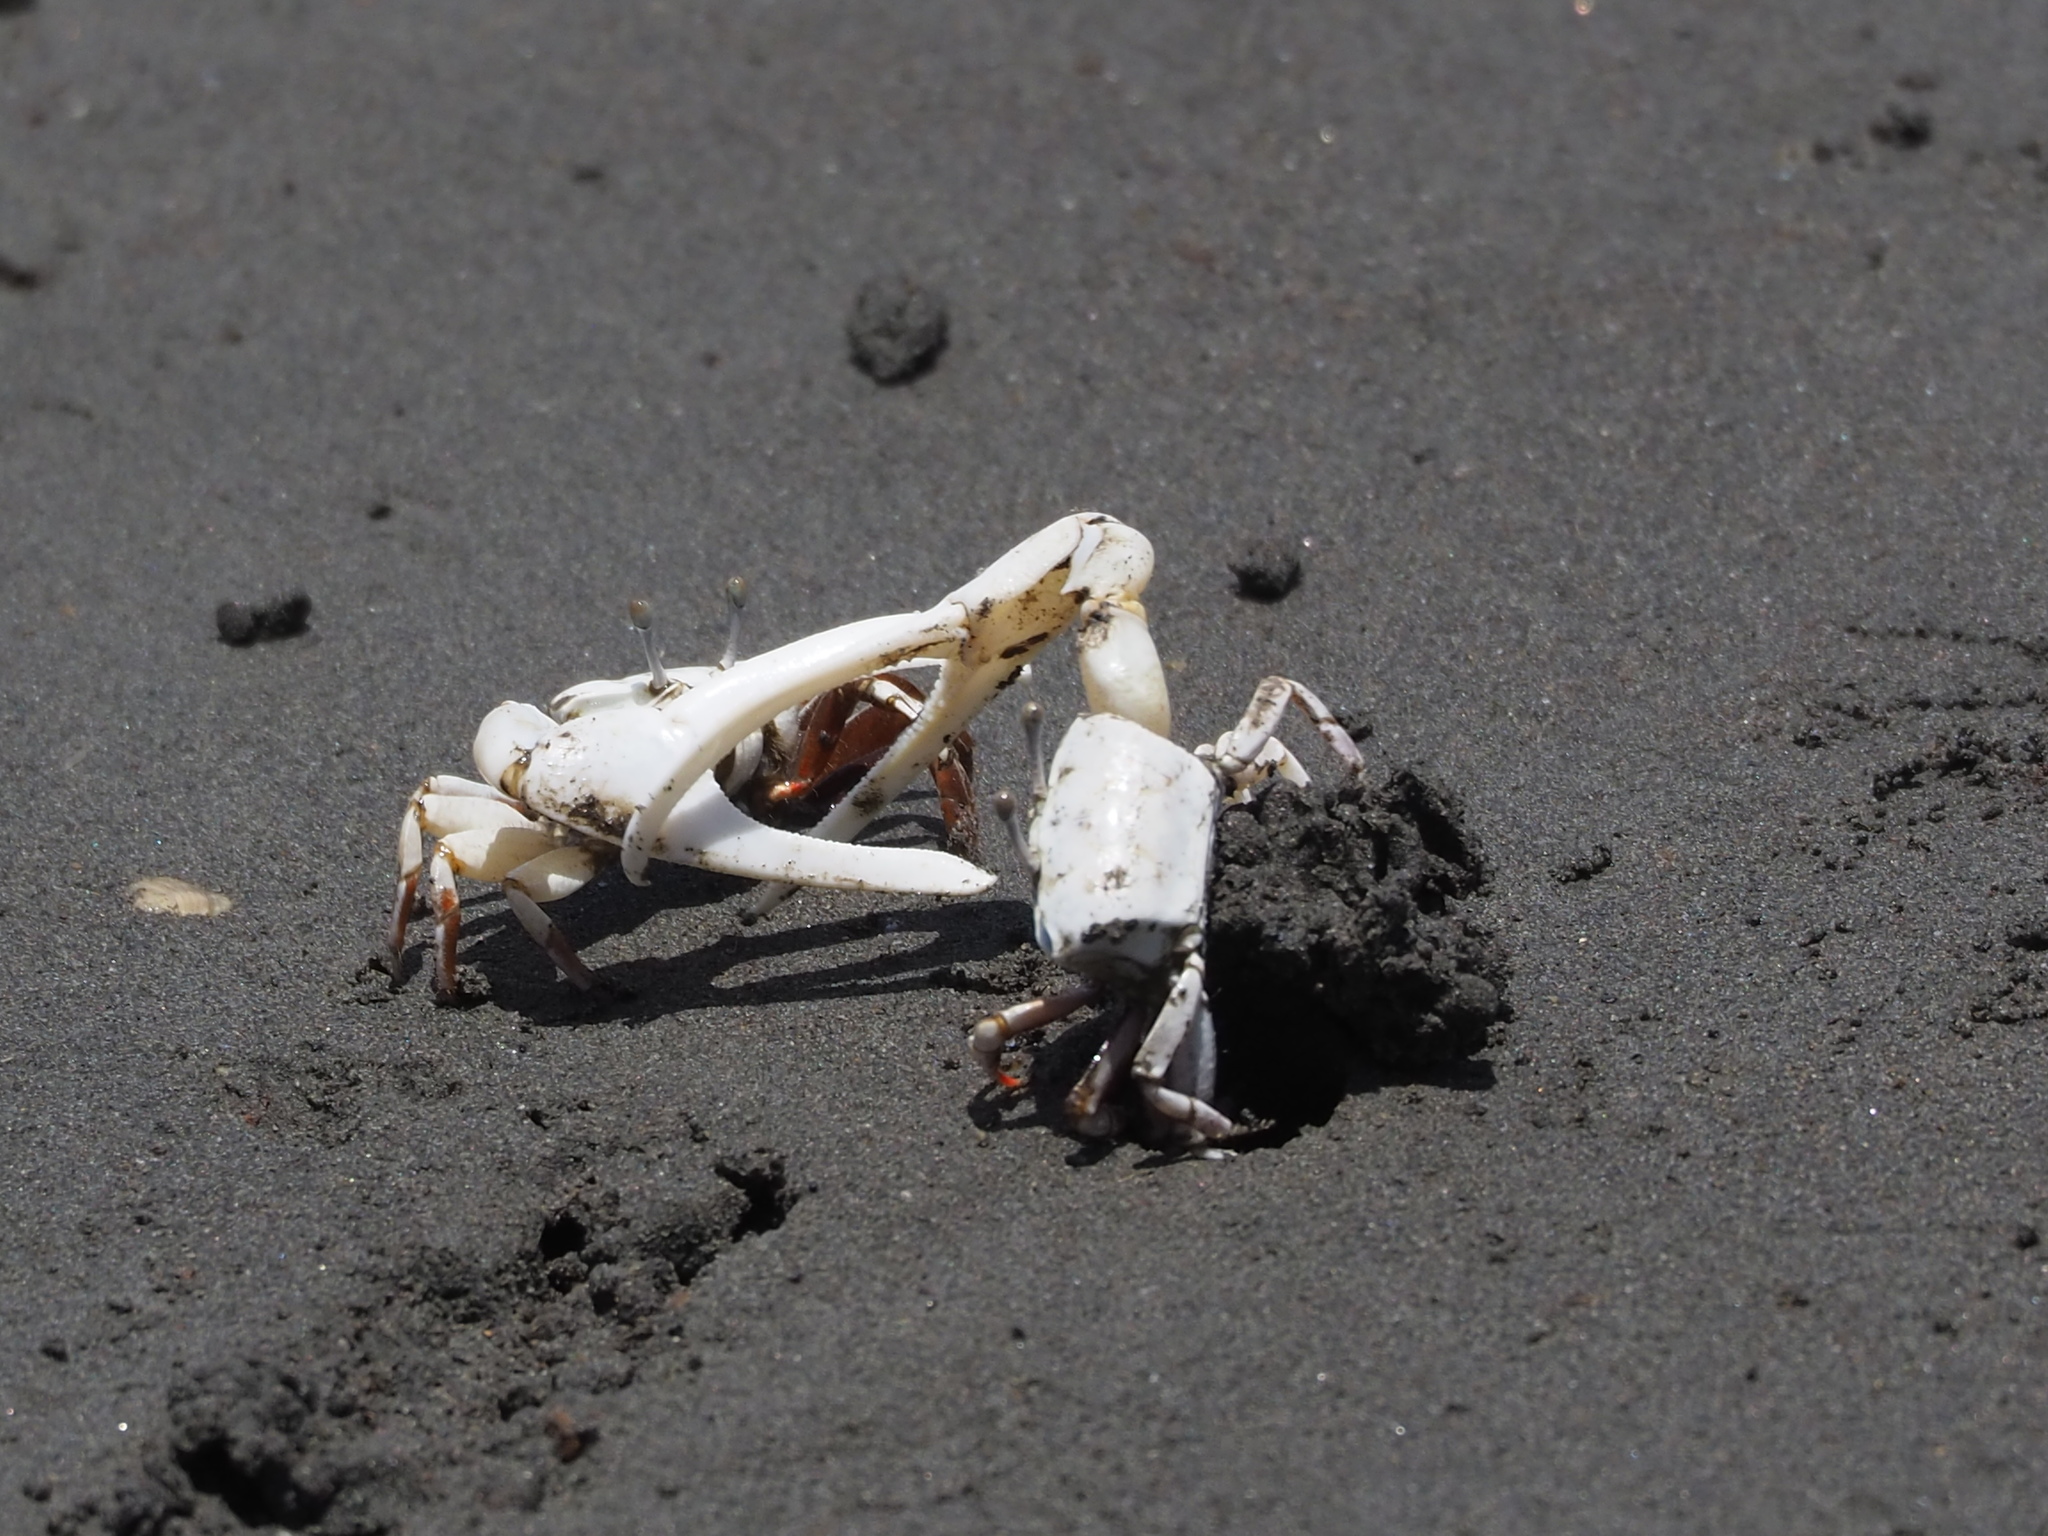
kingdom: Animalia
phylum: Arthropoda
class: Malacostraca
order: Decapoda
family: Ocypodidae
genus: Austruca
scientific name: Austruca lactea
